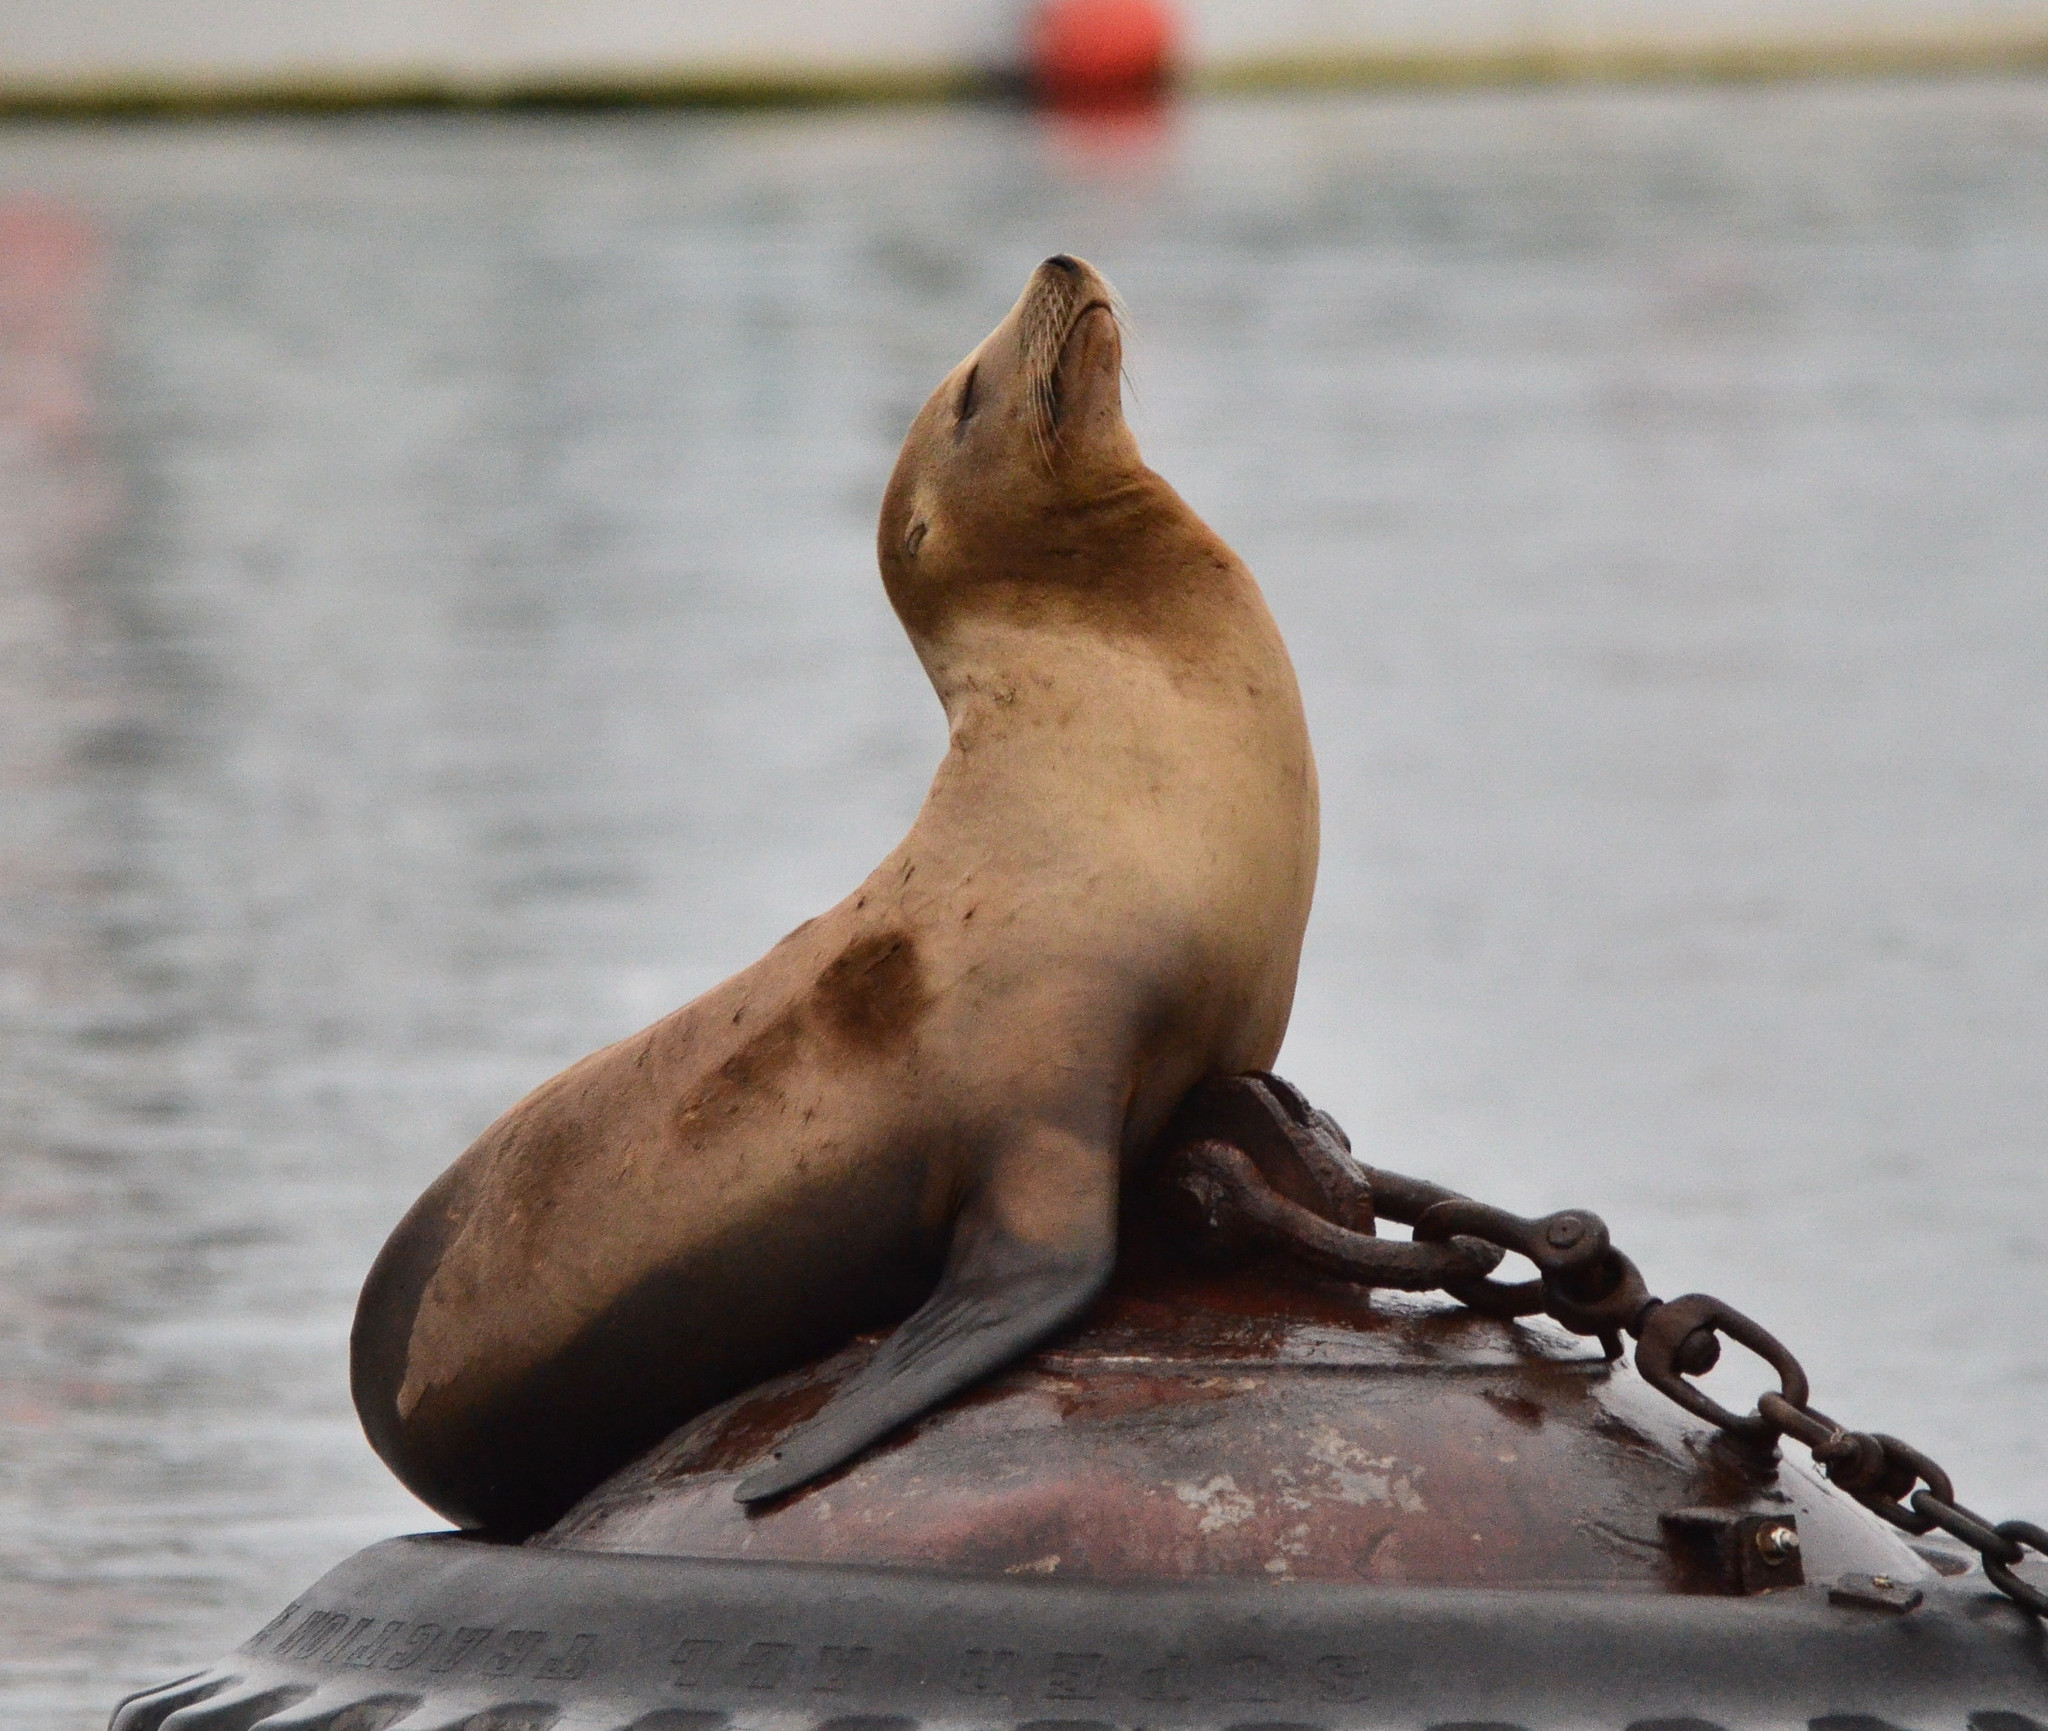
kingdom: Animalia
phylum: Chordata
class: Mammalia
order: Carnivora
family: Otariidae
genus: Zalophus
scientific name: Zalophus californianus
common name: California sea lion
